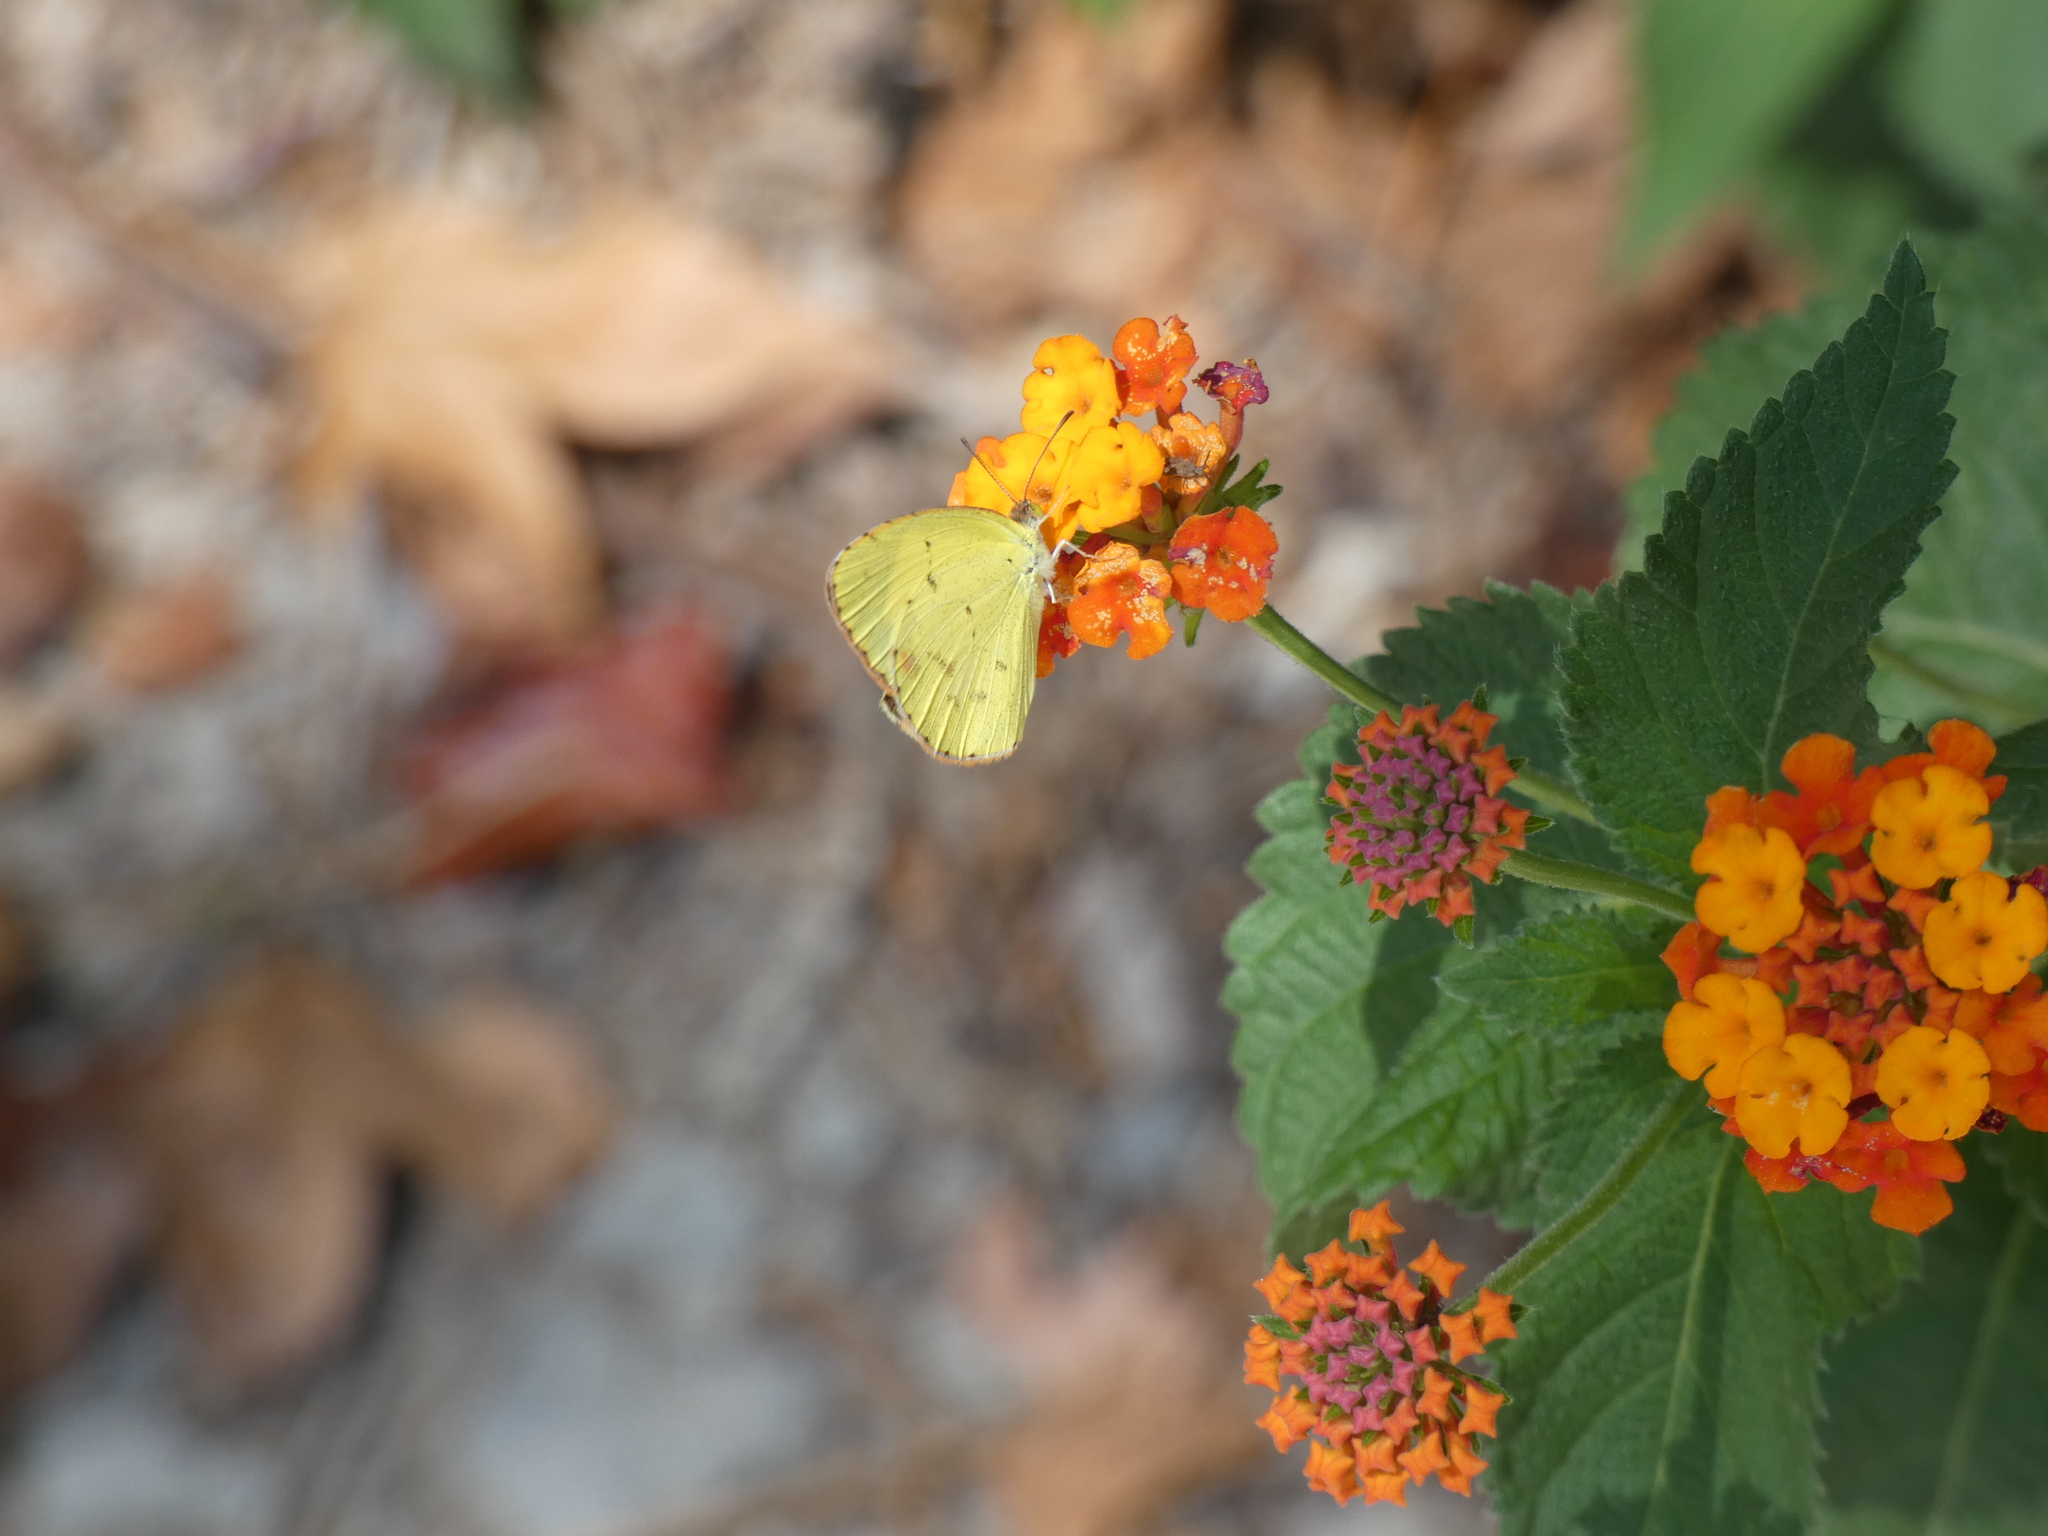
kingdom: Animalia
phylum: Arthropoda
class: Insecta
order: Lepidoptera
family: Pieridae
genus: Pyrisitia
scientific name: Pyrisitia lisa
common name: Little yellow
